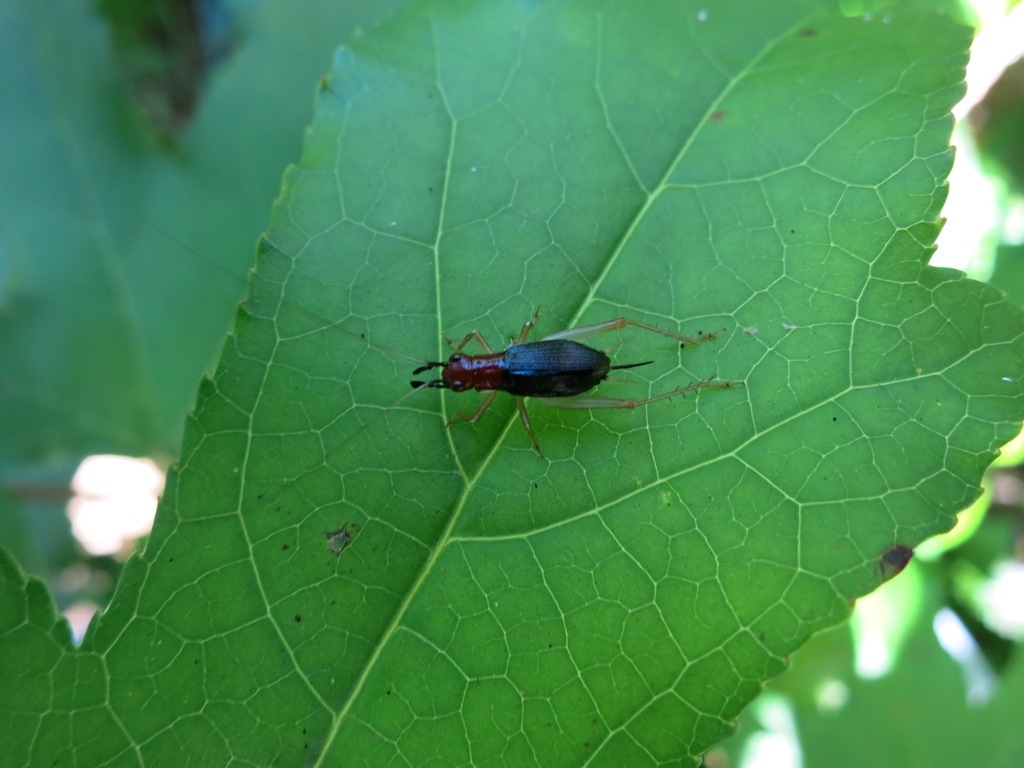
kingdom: Animalia
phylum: Arthropoda
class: Insecta
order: Orthoptera
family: Trigonidiidae
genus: Phyllopalpus
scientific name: Phyllopalpus pulchellus
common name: Handsome trig
